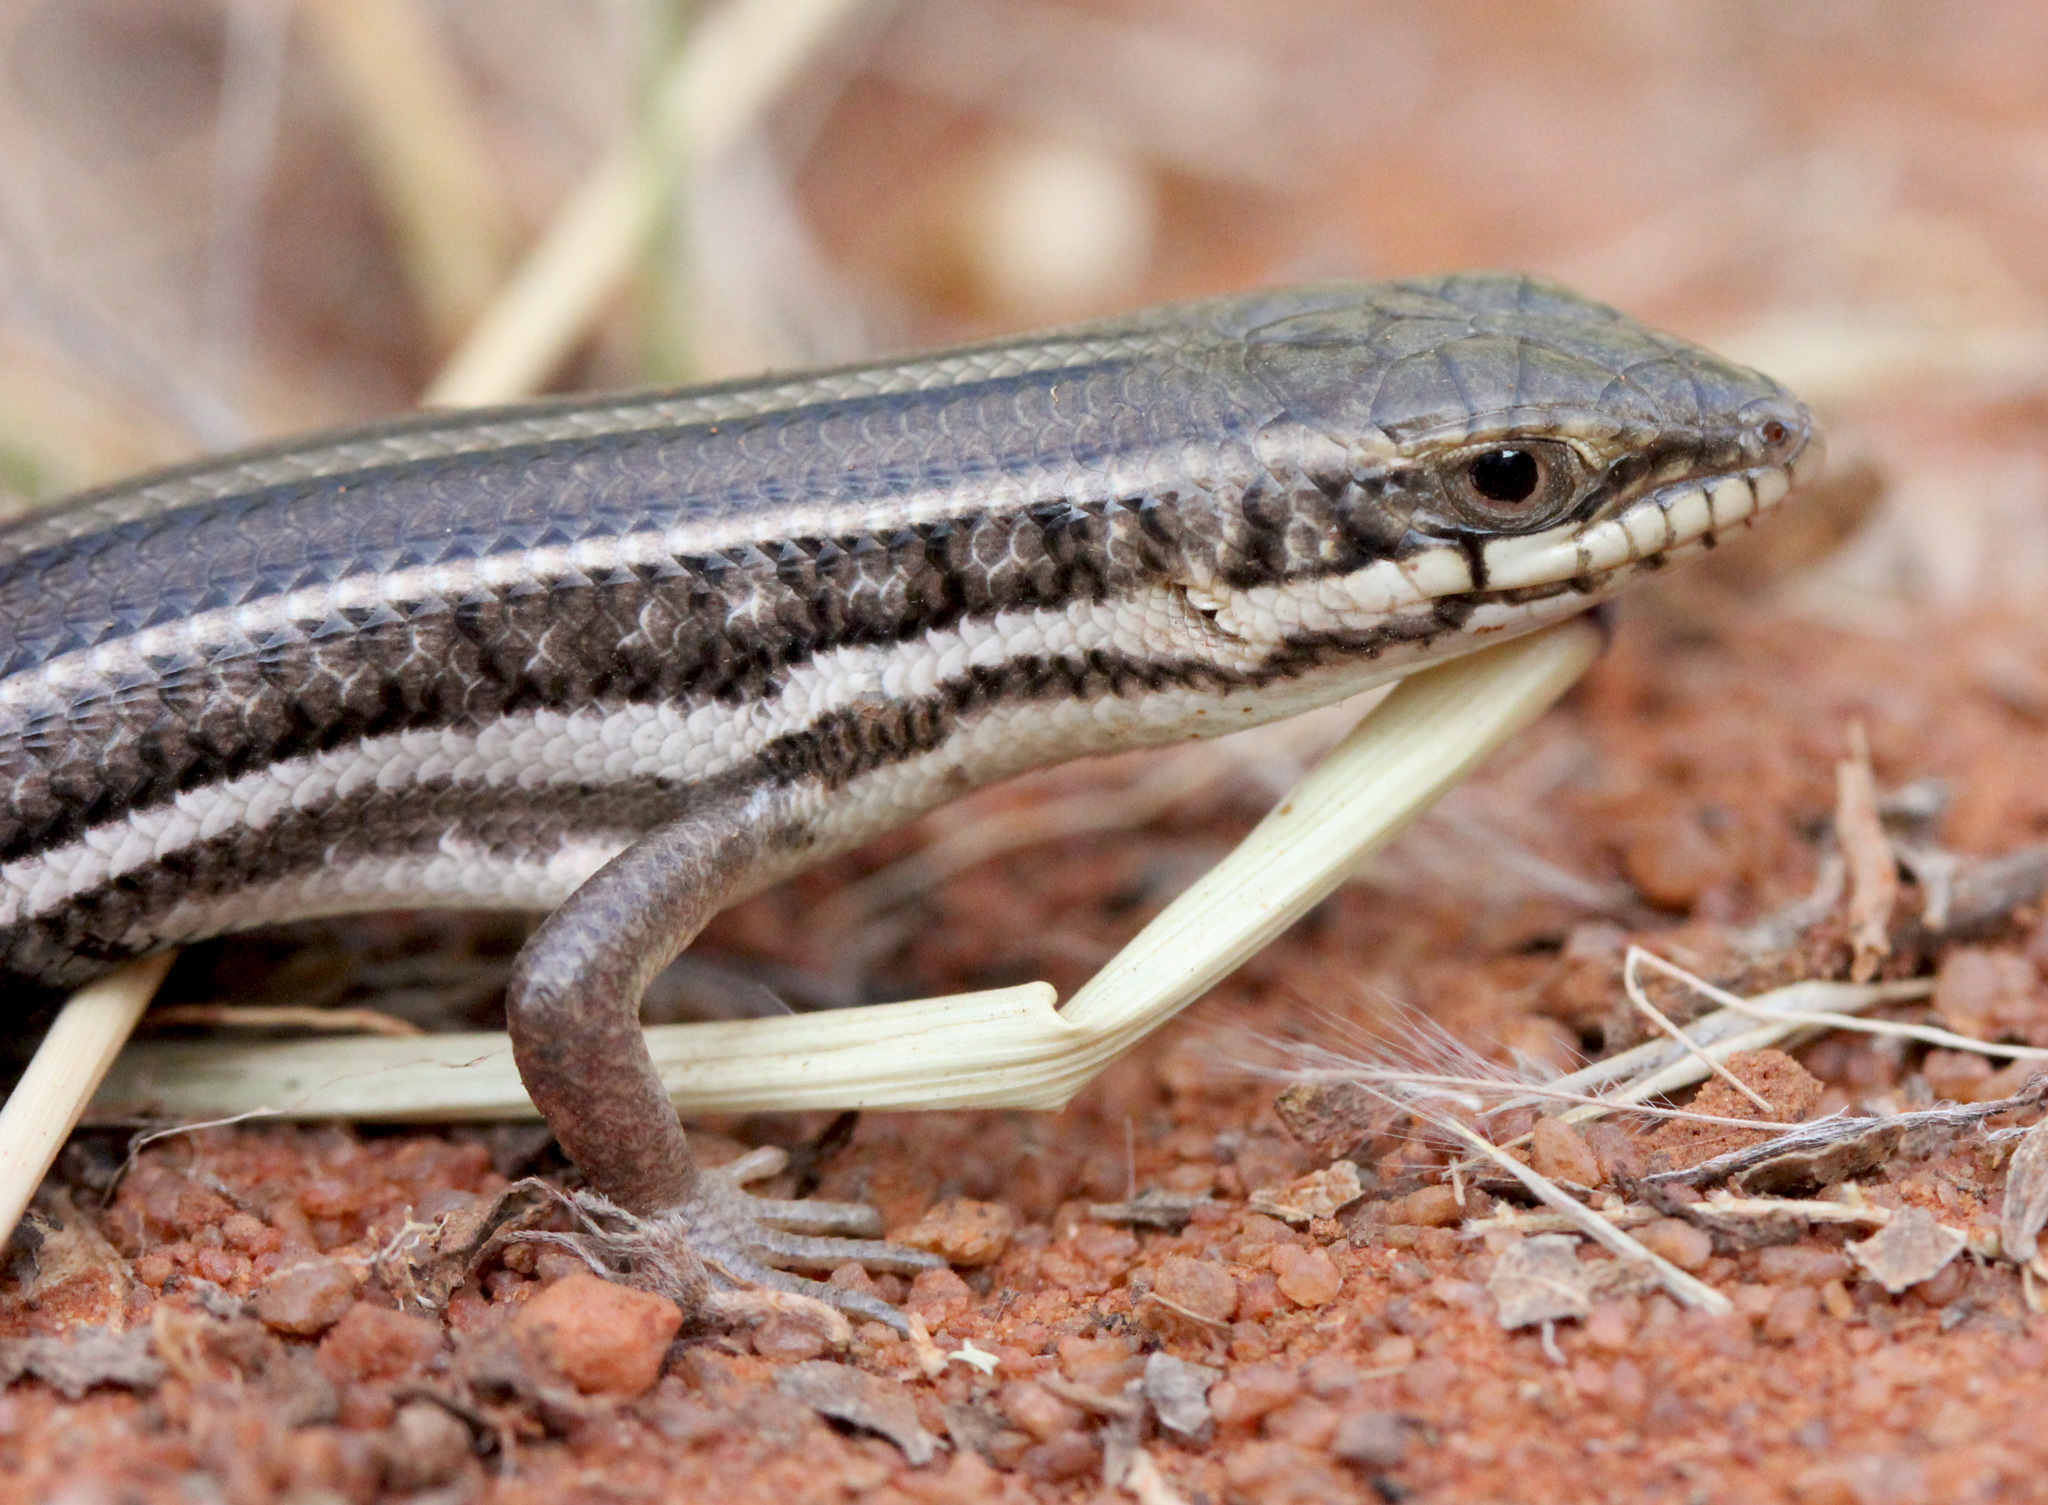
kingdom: Animalia
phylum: Chordata
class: Squamata
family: Scincidae
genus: Trachylepis
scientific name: Trachylepis occidentalis
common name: Western three-striped skink
